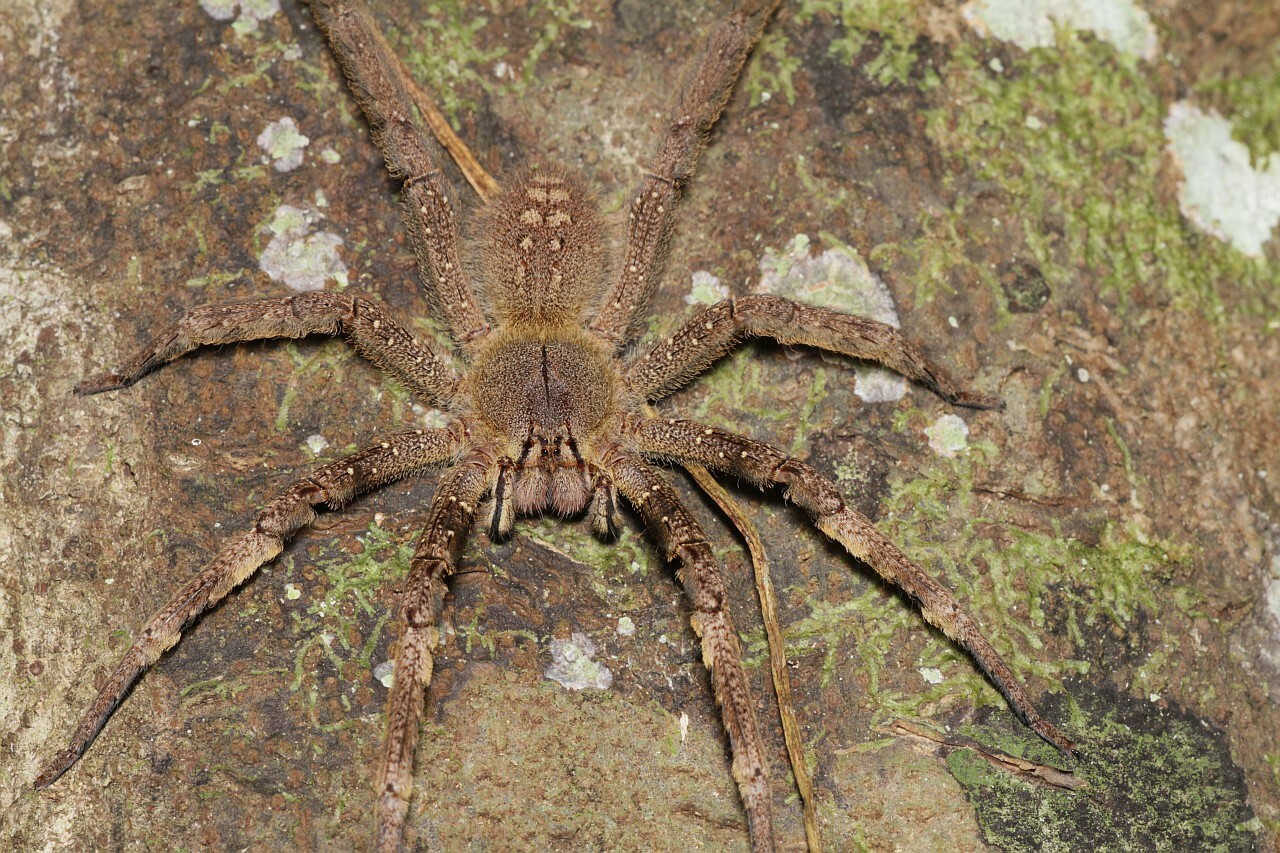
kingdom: Animalia
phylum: Arthropoda
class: Arachnida
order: Araneae
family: Ctenidae
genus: Phoneutria
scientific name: Phoneutria fera
